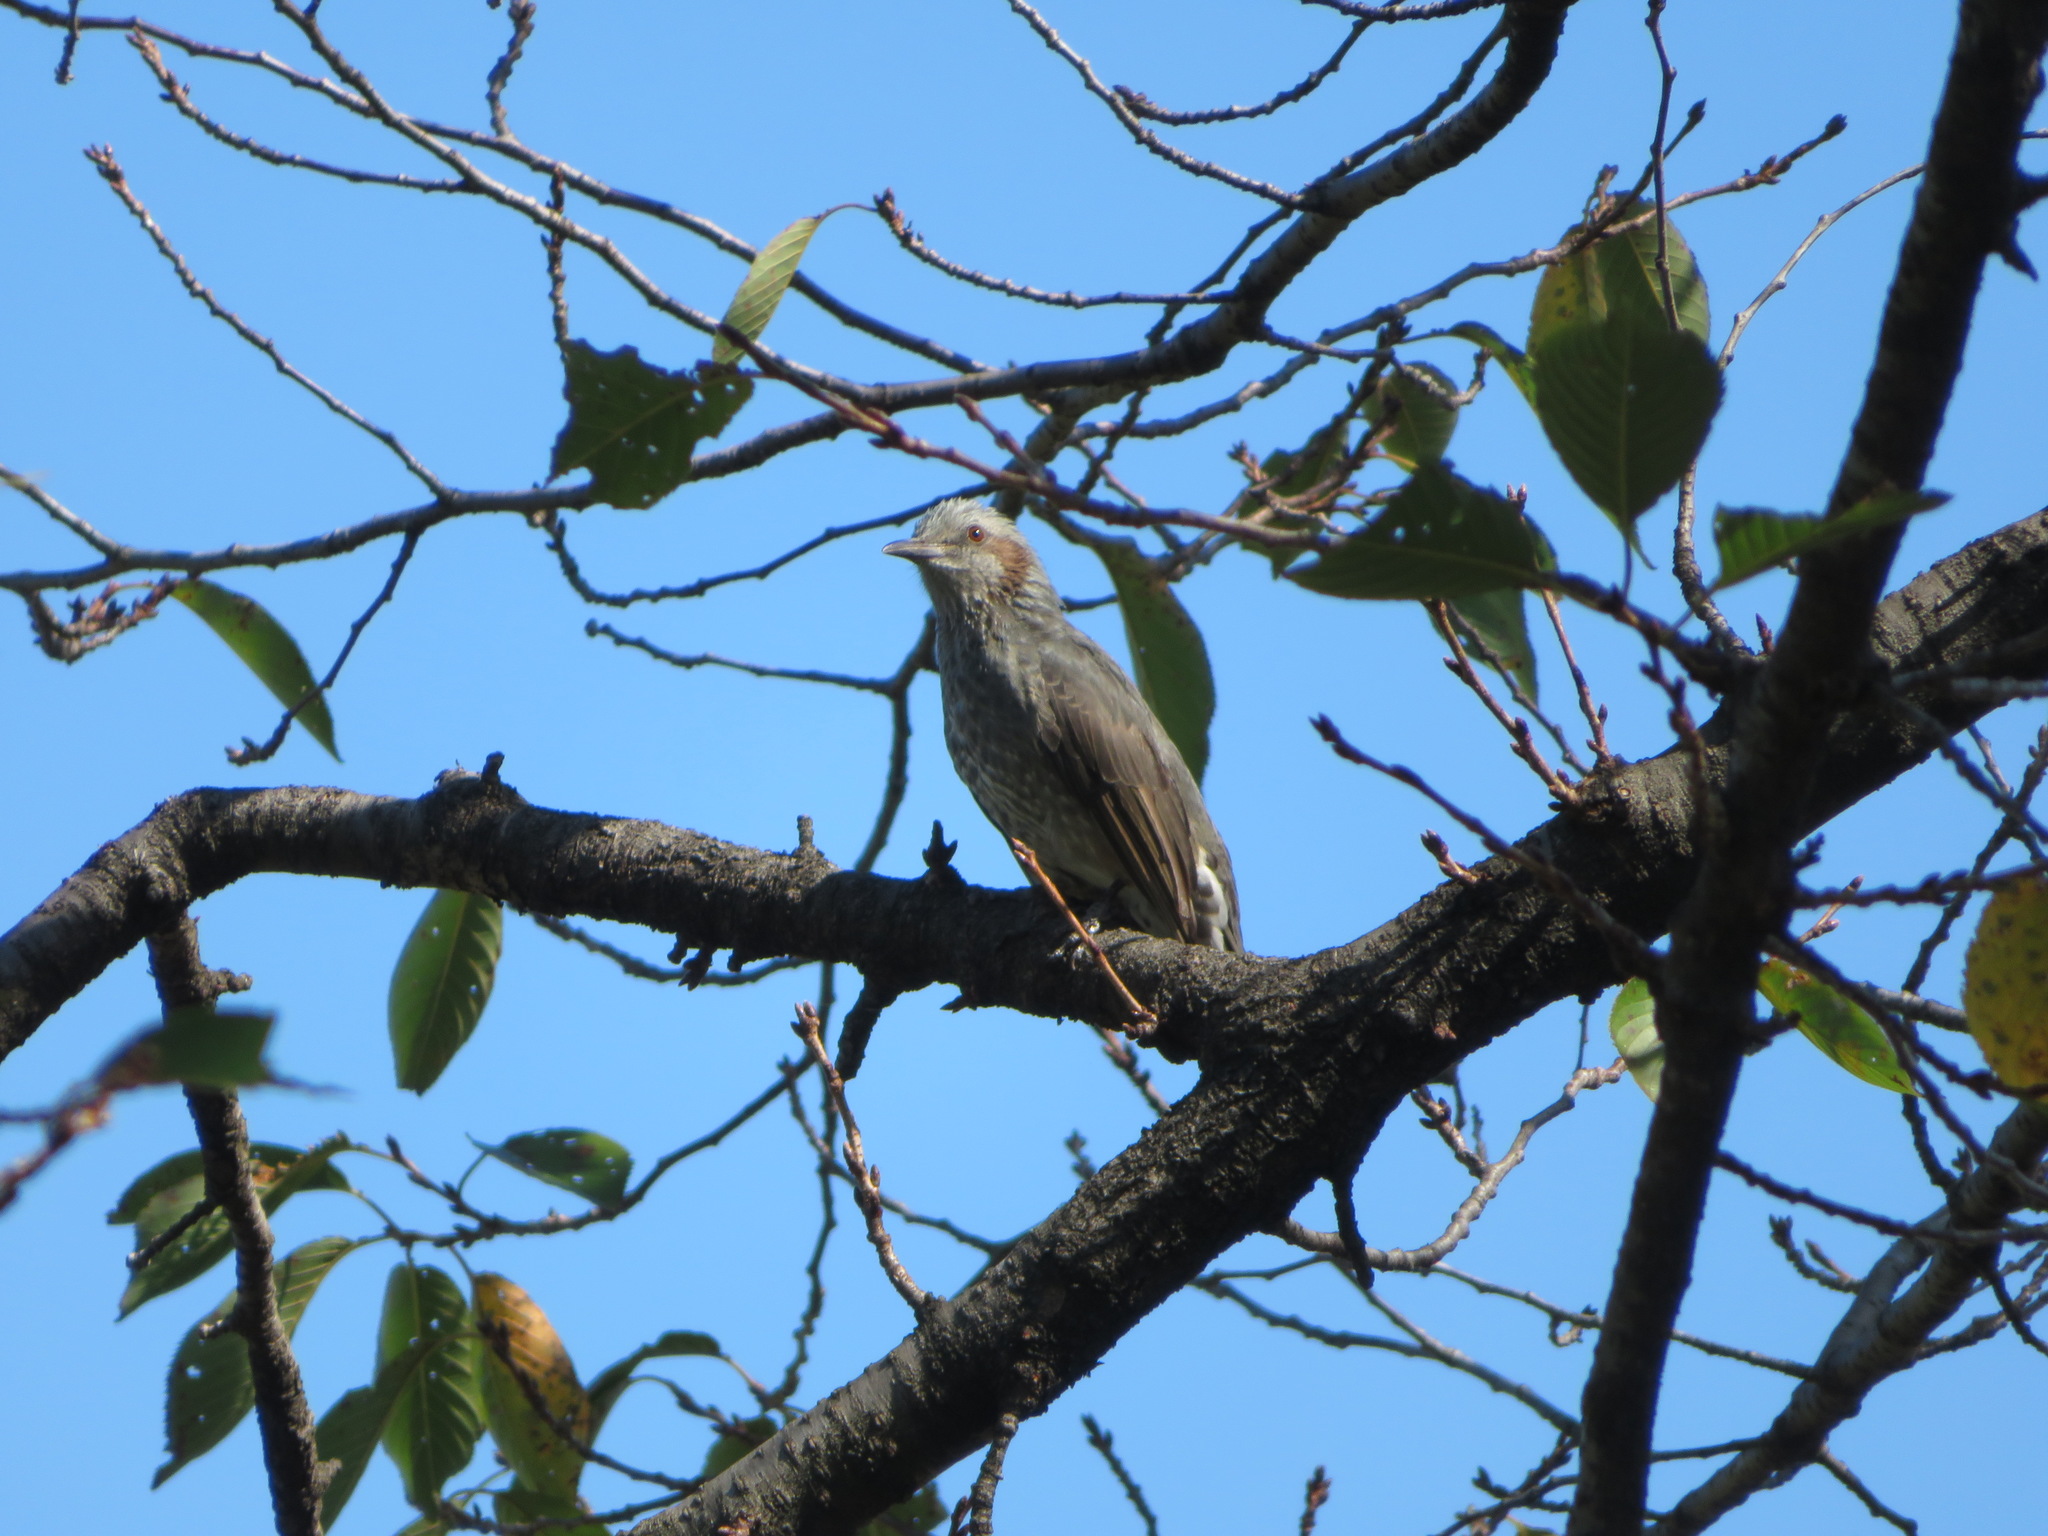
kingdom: Animalia
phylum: Chordata
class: Aves
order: Passeriformes
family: Pycnonotidae
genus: Hypsipetes
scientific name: Hypsipetes amaurotis
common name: Brown-eared bulbul
